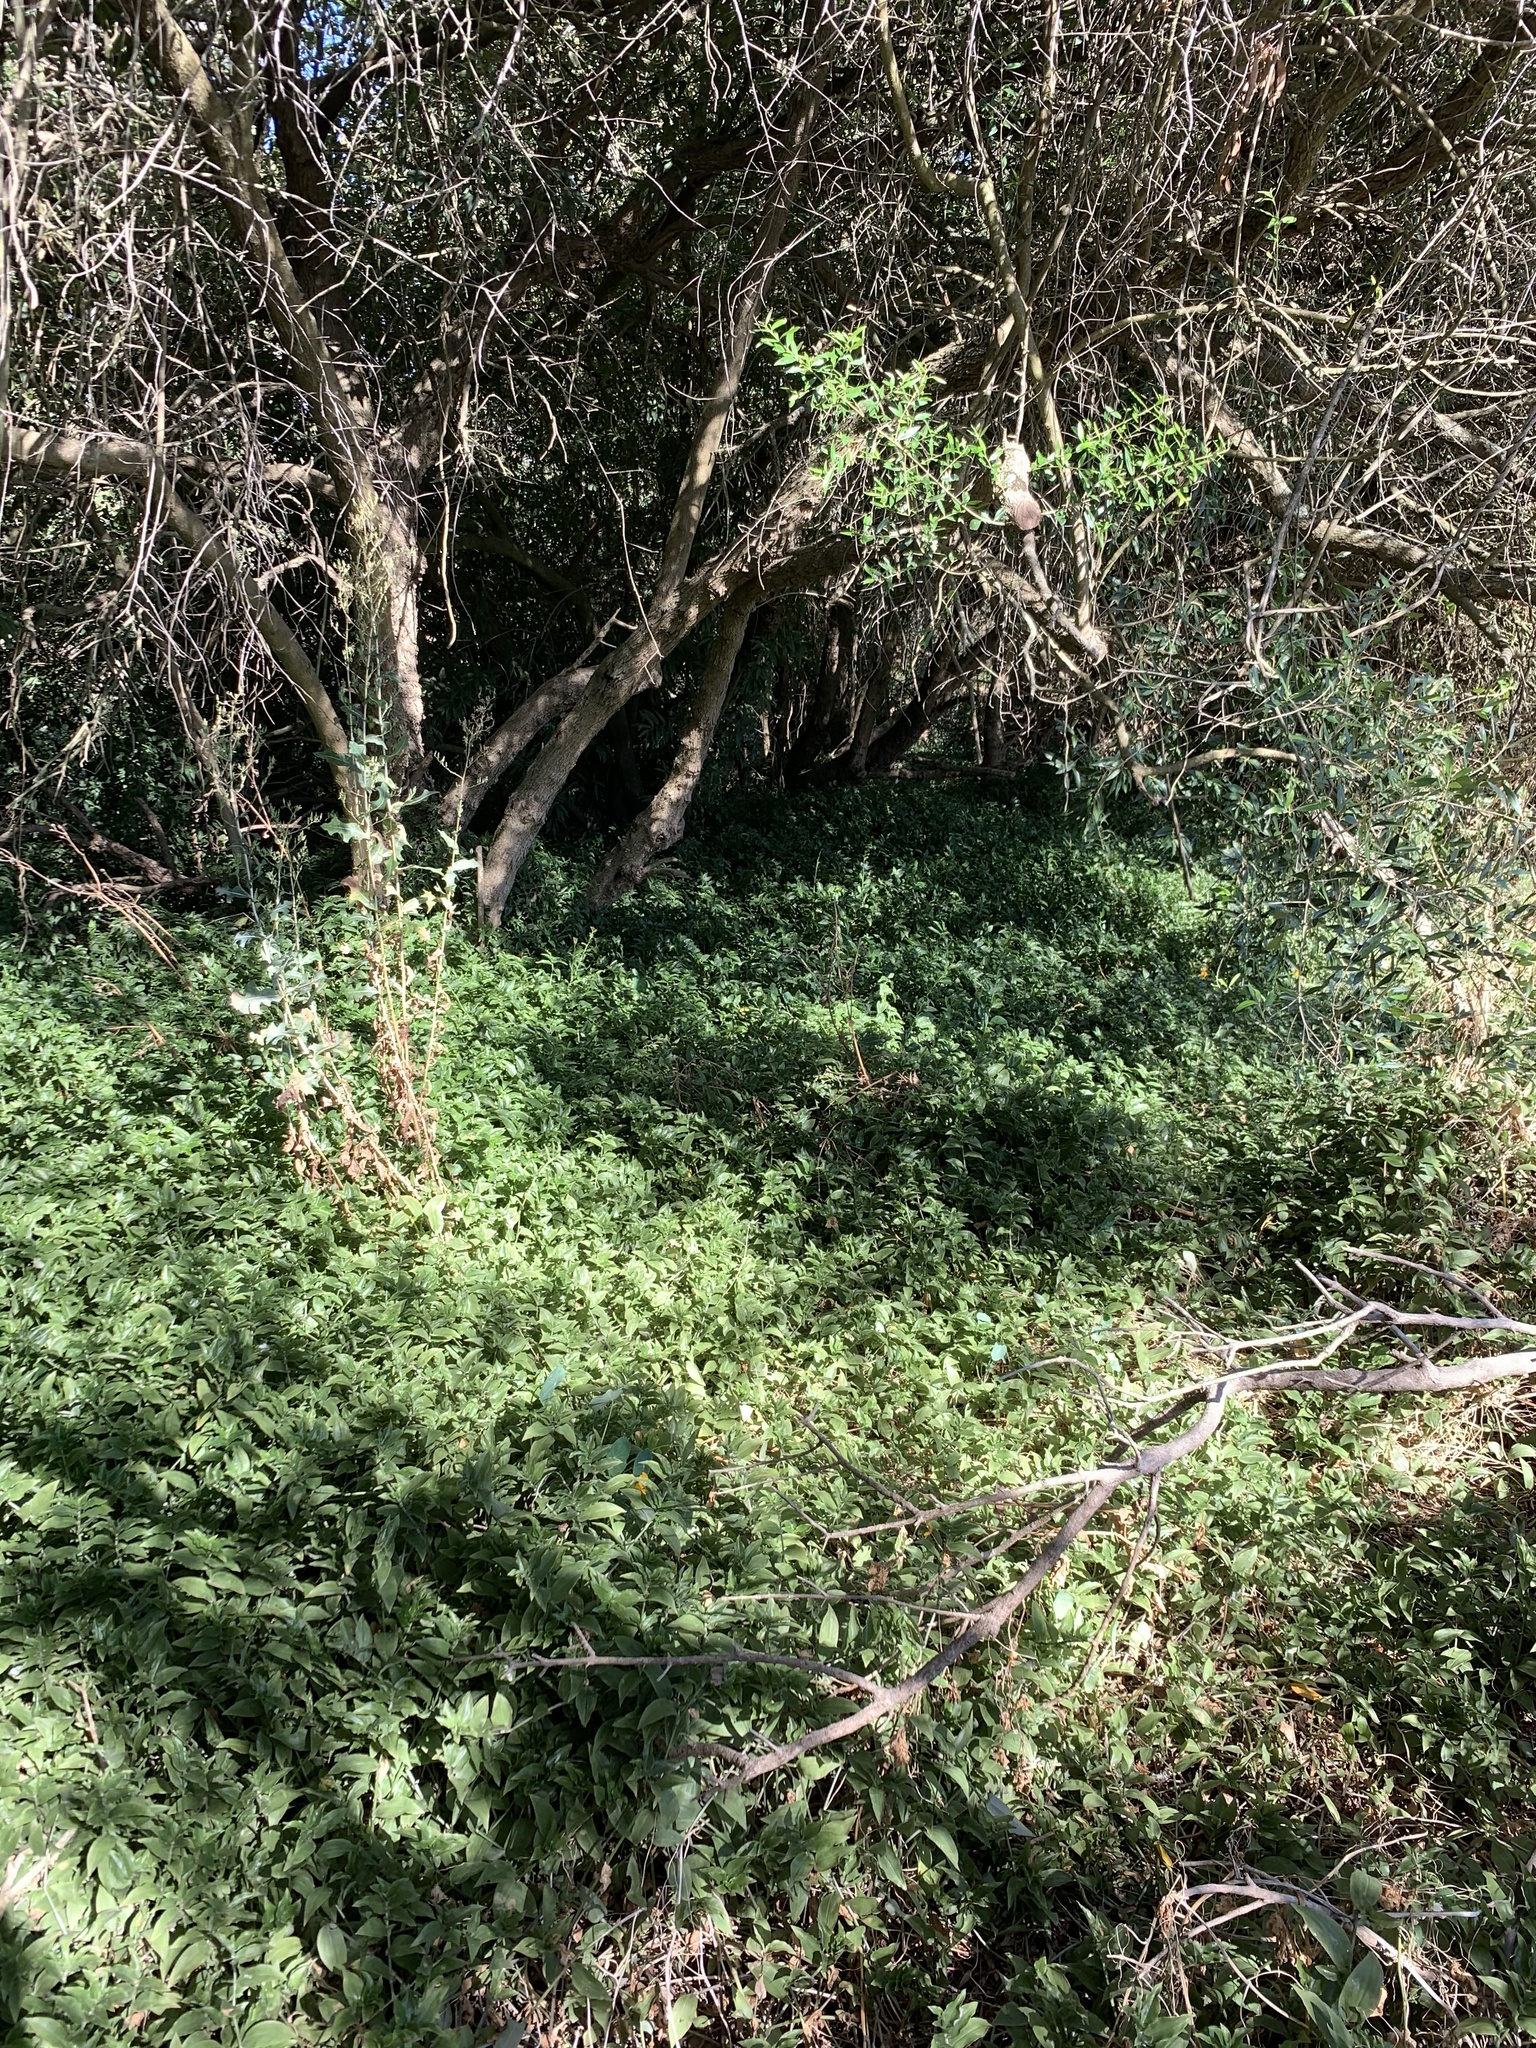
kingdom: Plantae
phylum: Tracheophyta
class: Liliopsida
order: Commelinales
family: Commelinaceae
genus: Tradescantia
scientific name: Tradescantia fluminensis
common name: Wandering-jew
